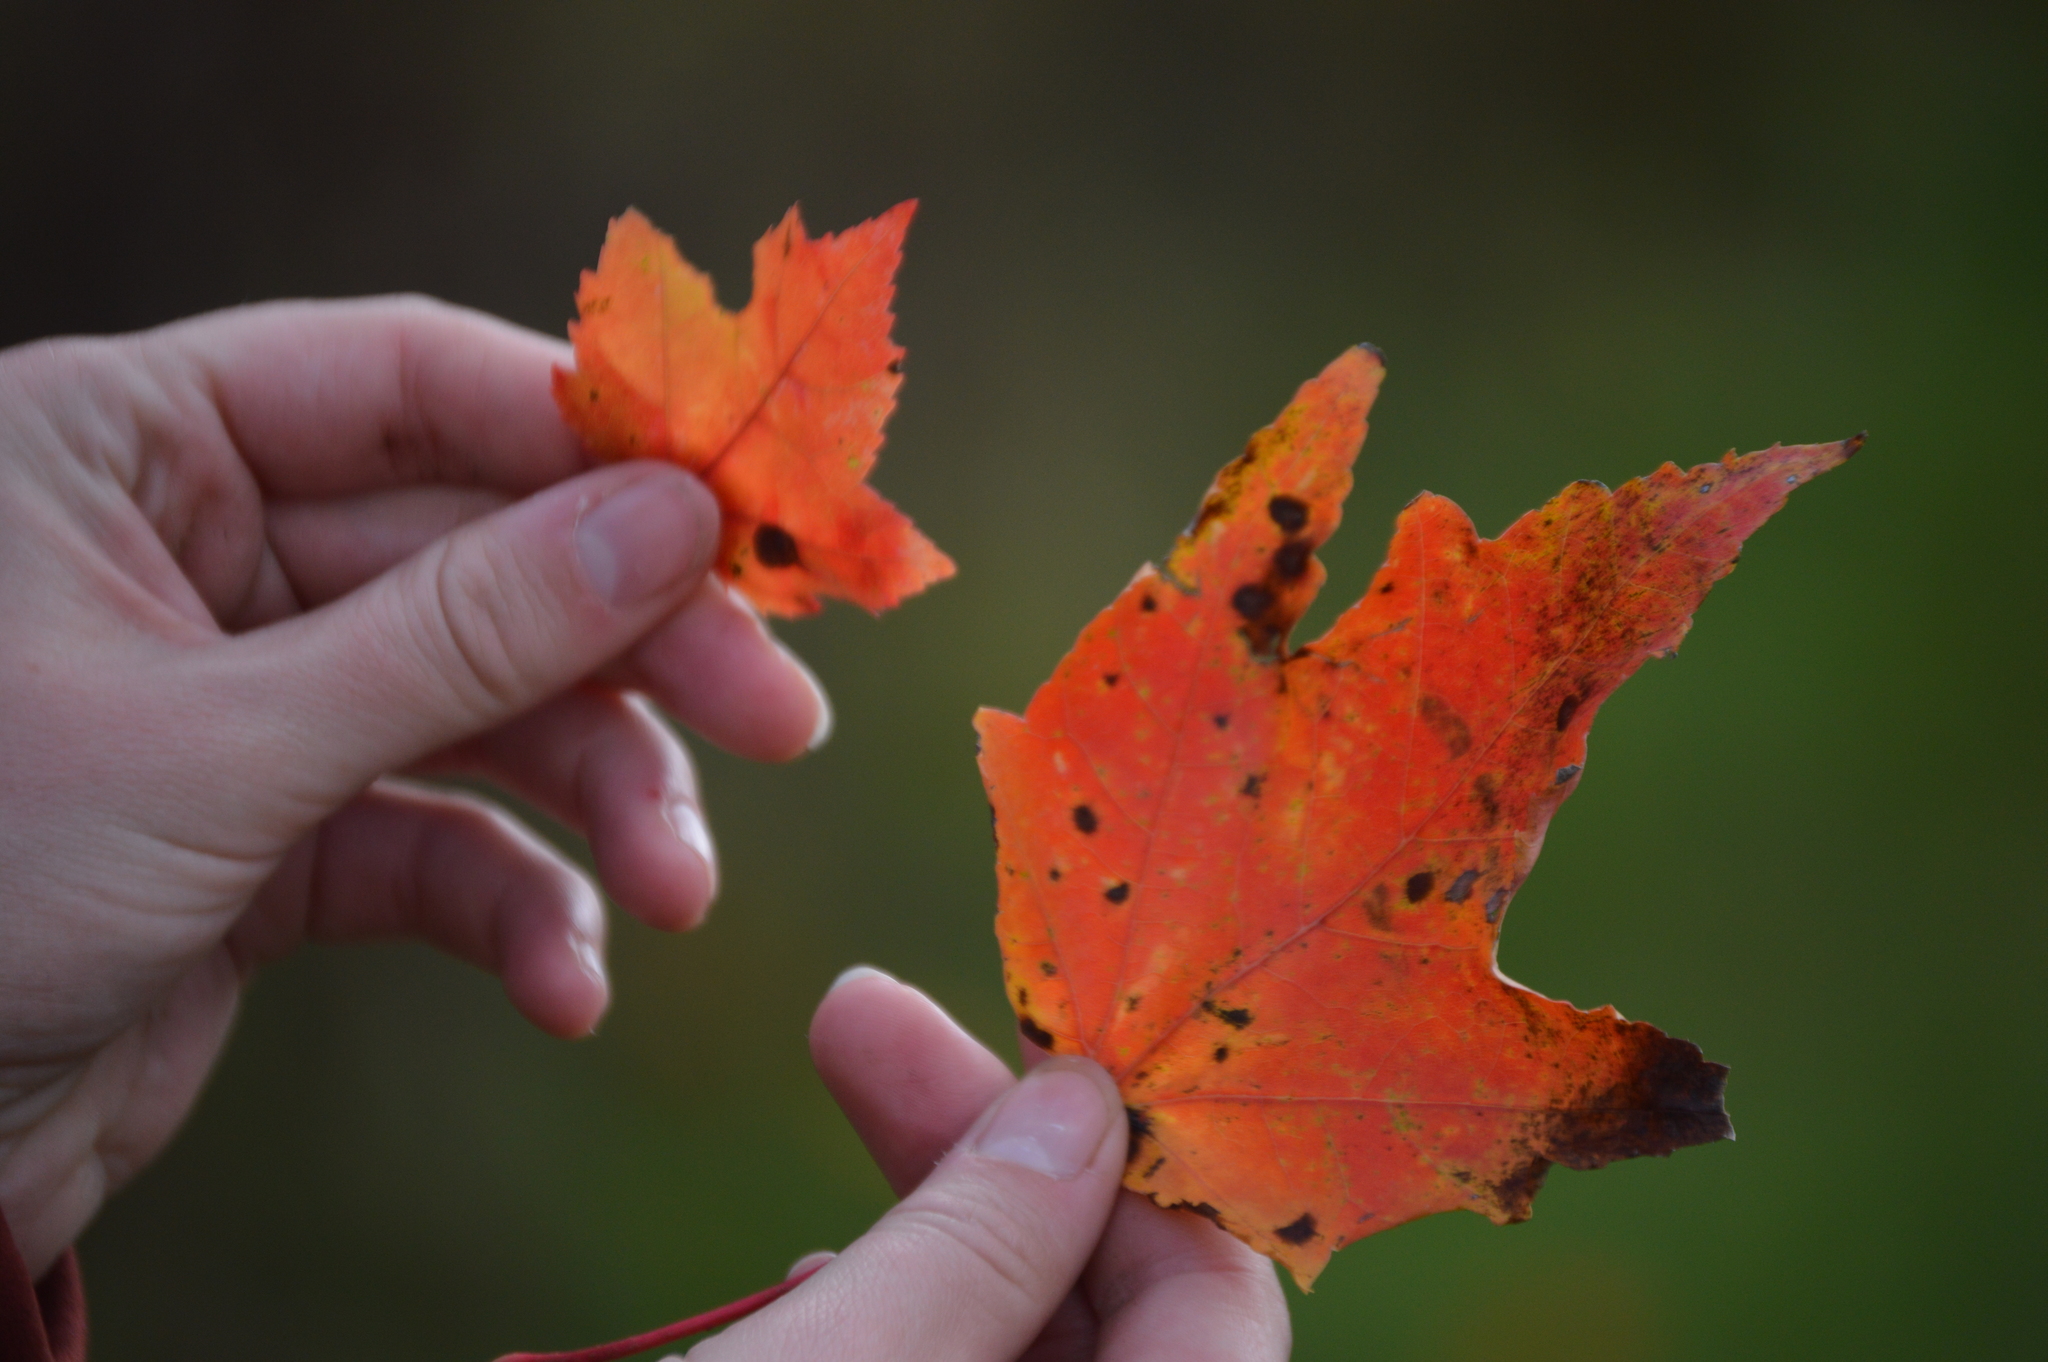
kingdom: Plantae
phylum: Tracheophyta
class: Magnoliopsida
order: Sapindales
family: Sapindaceae
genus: Acer
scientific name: Acer rubrum
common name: Red maple
